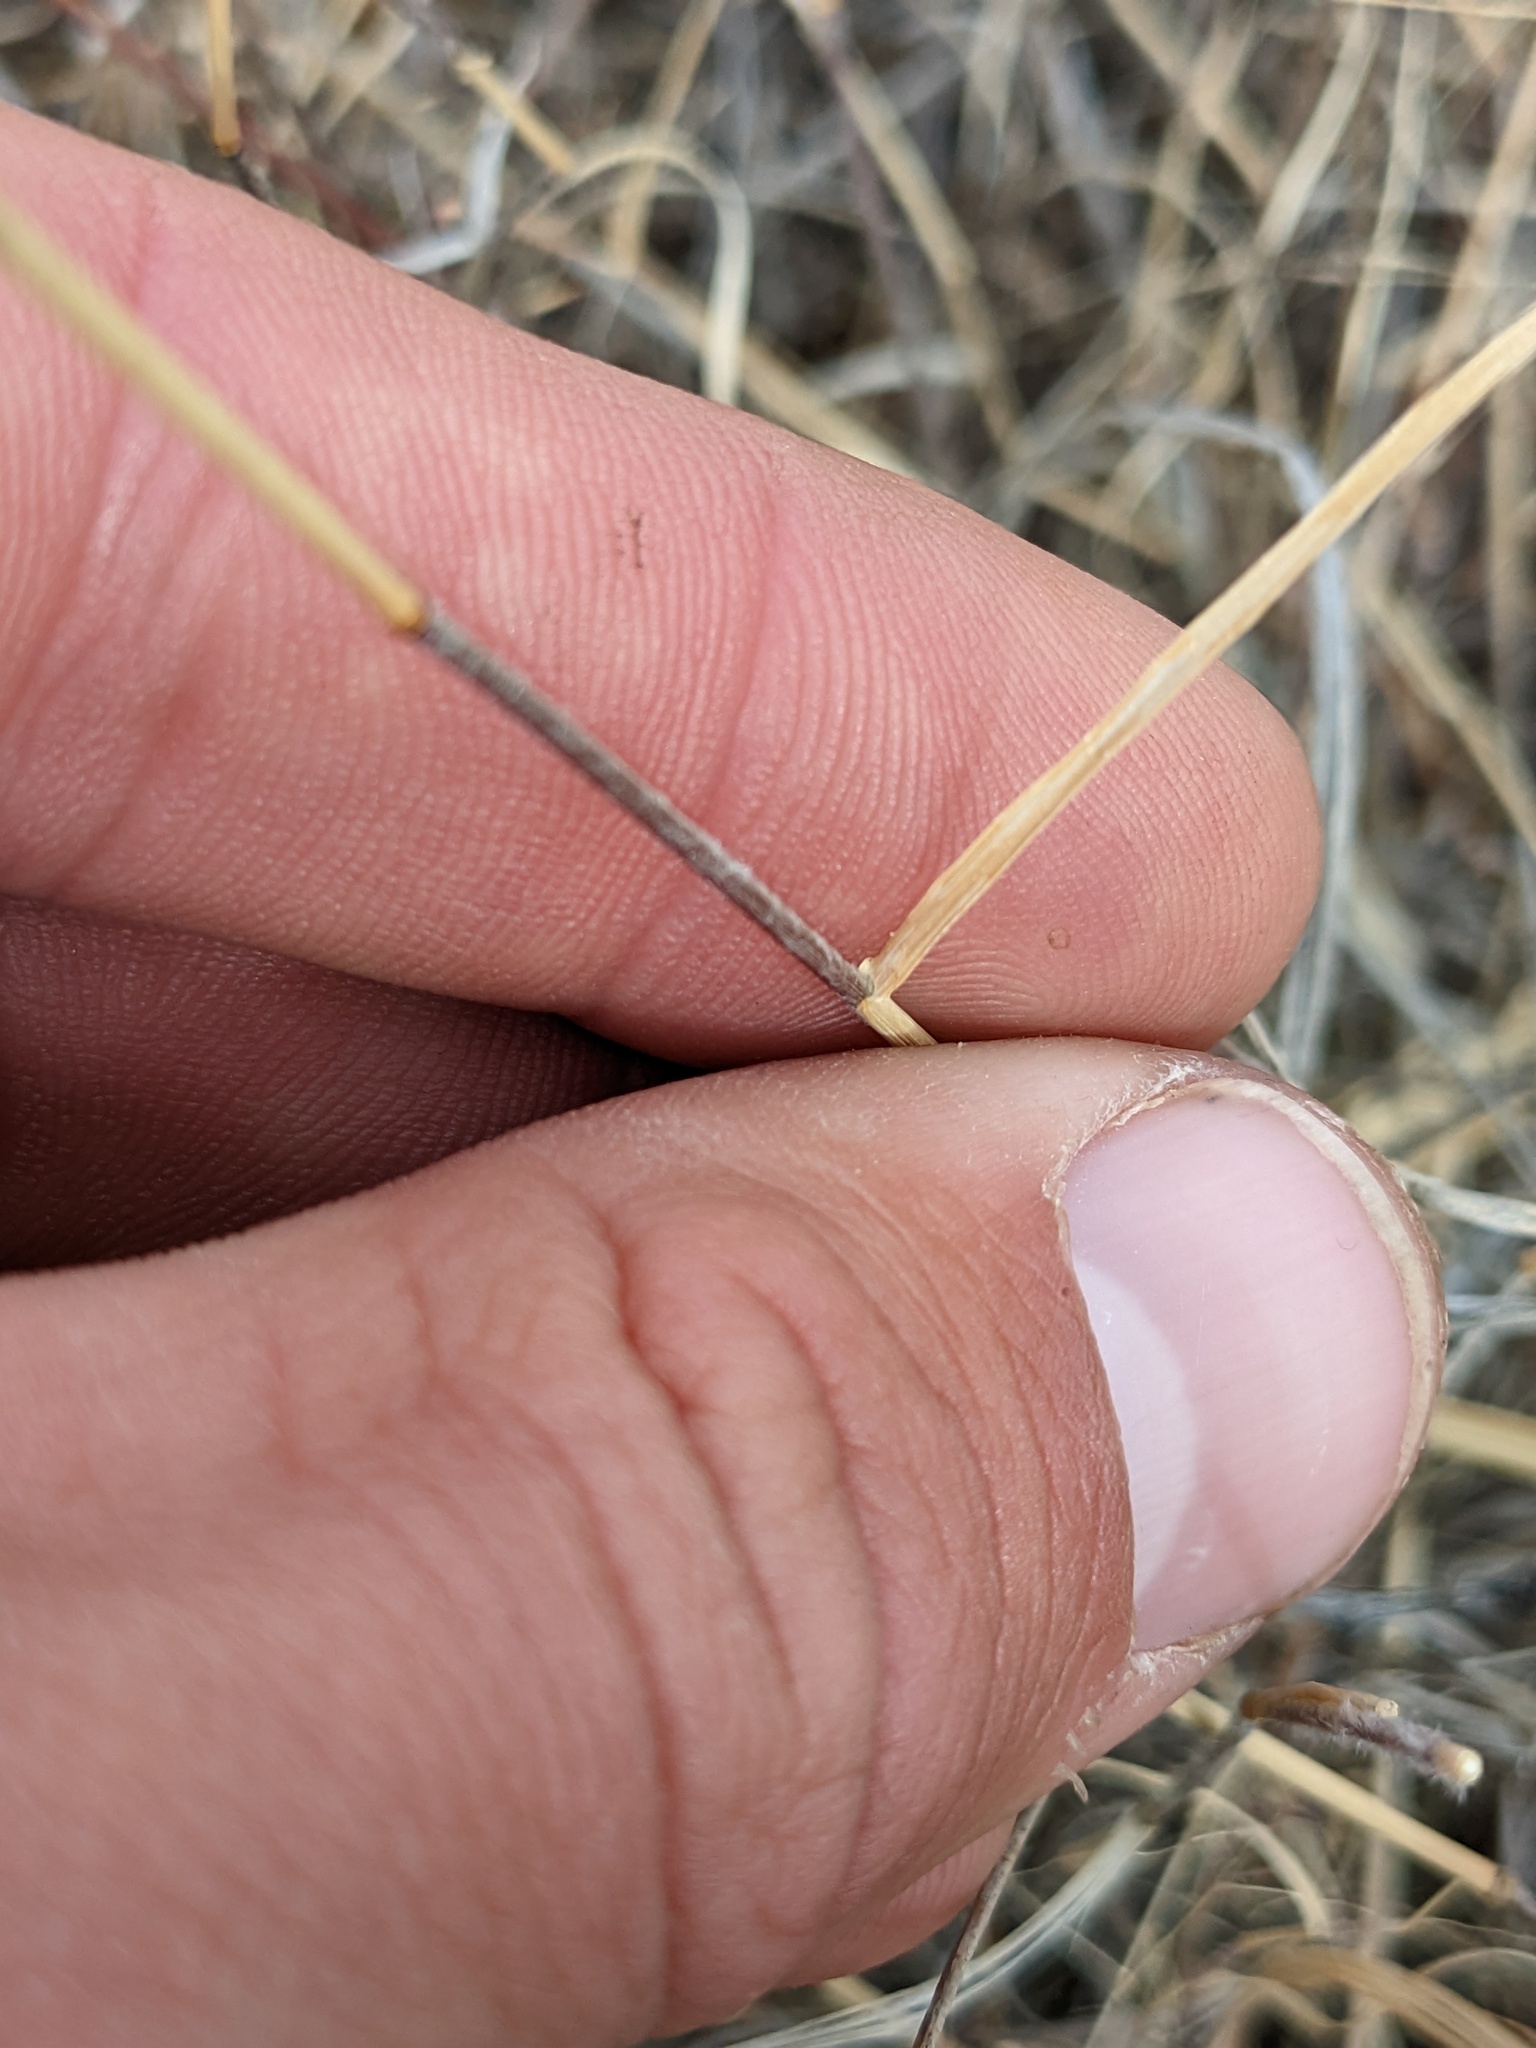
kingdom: Plantae
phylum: Tracheophyta
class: Liliopsida
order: Poales
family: Poaceae
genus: Bouteloua
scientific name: Bouteloua eriopoda
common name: Woolly foot grama
